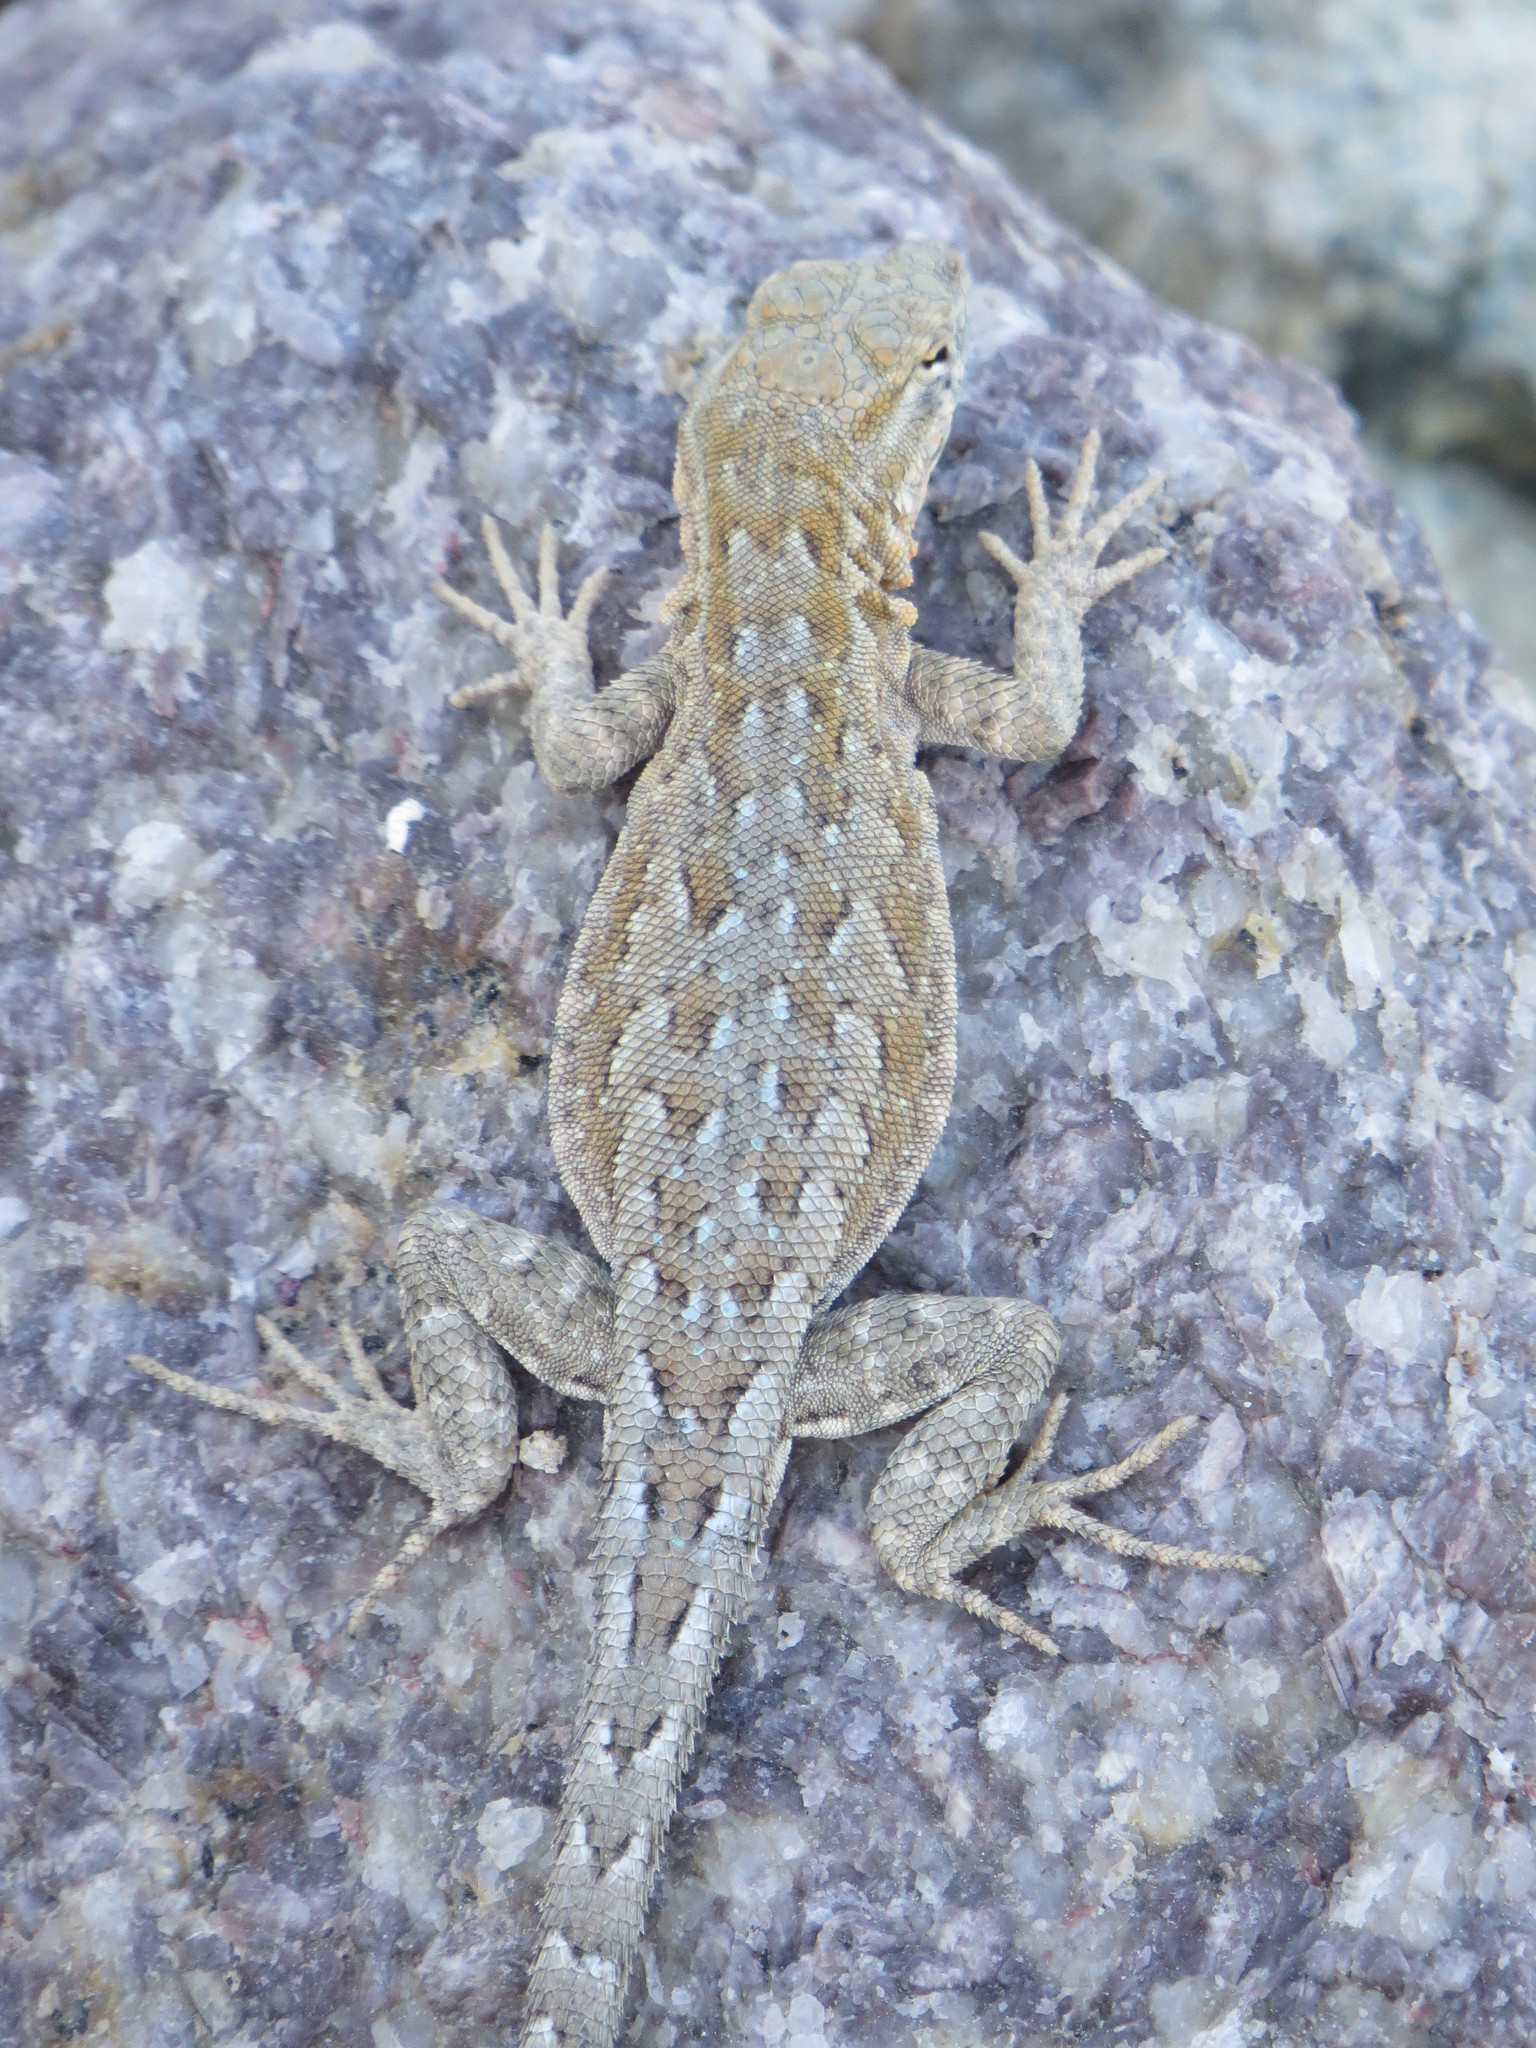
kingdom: Animalia
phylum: Chordata
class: Squamata
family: Phrynosomatidae
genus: Uta
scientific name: Uta stansburiana
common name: Side-blotched lizard
